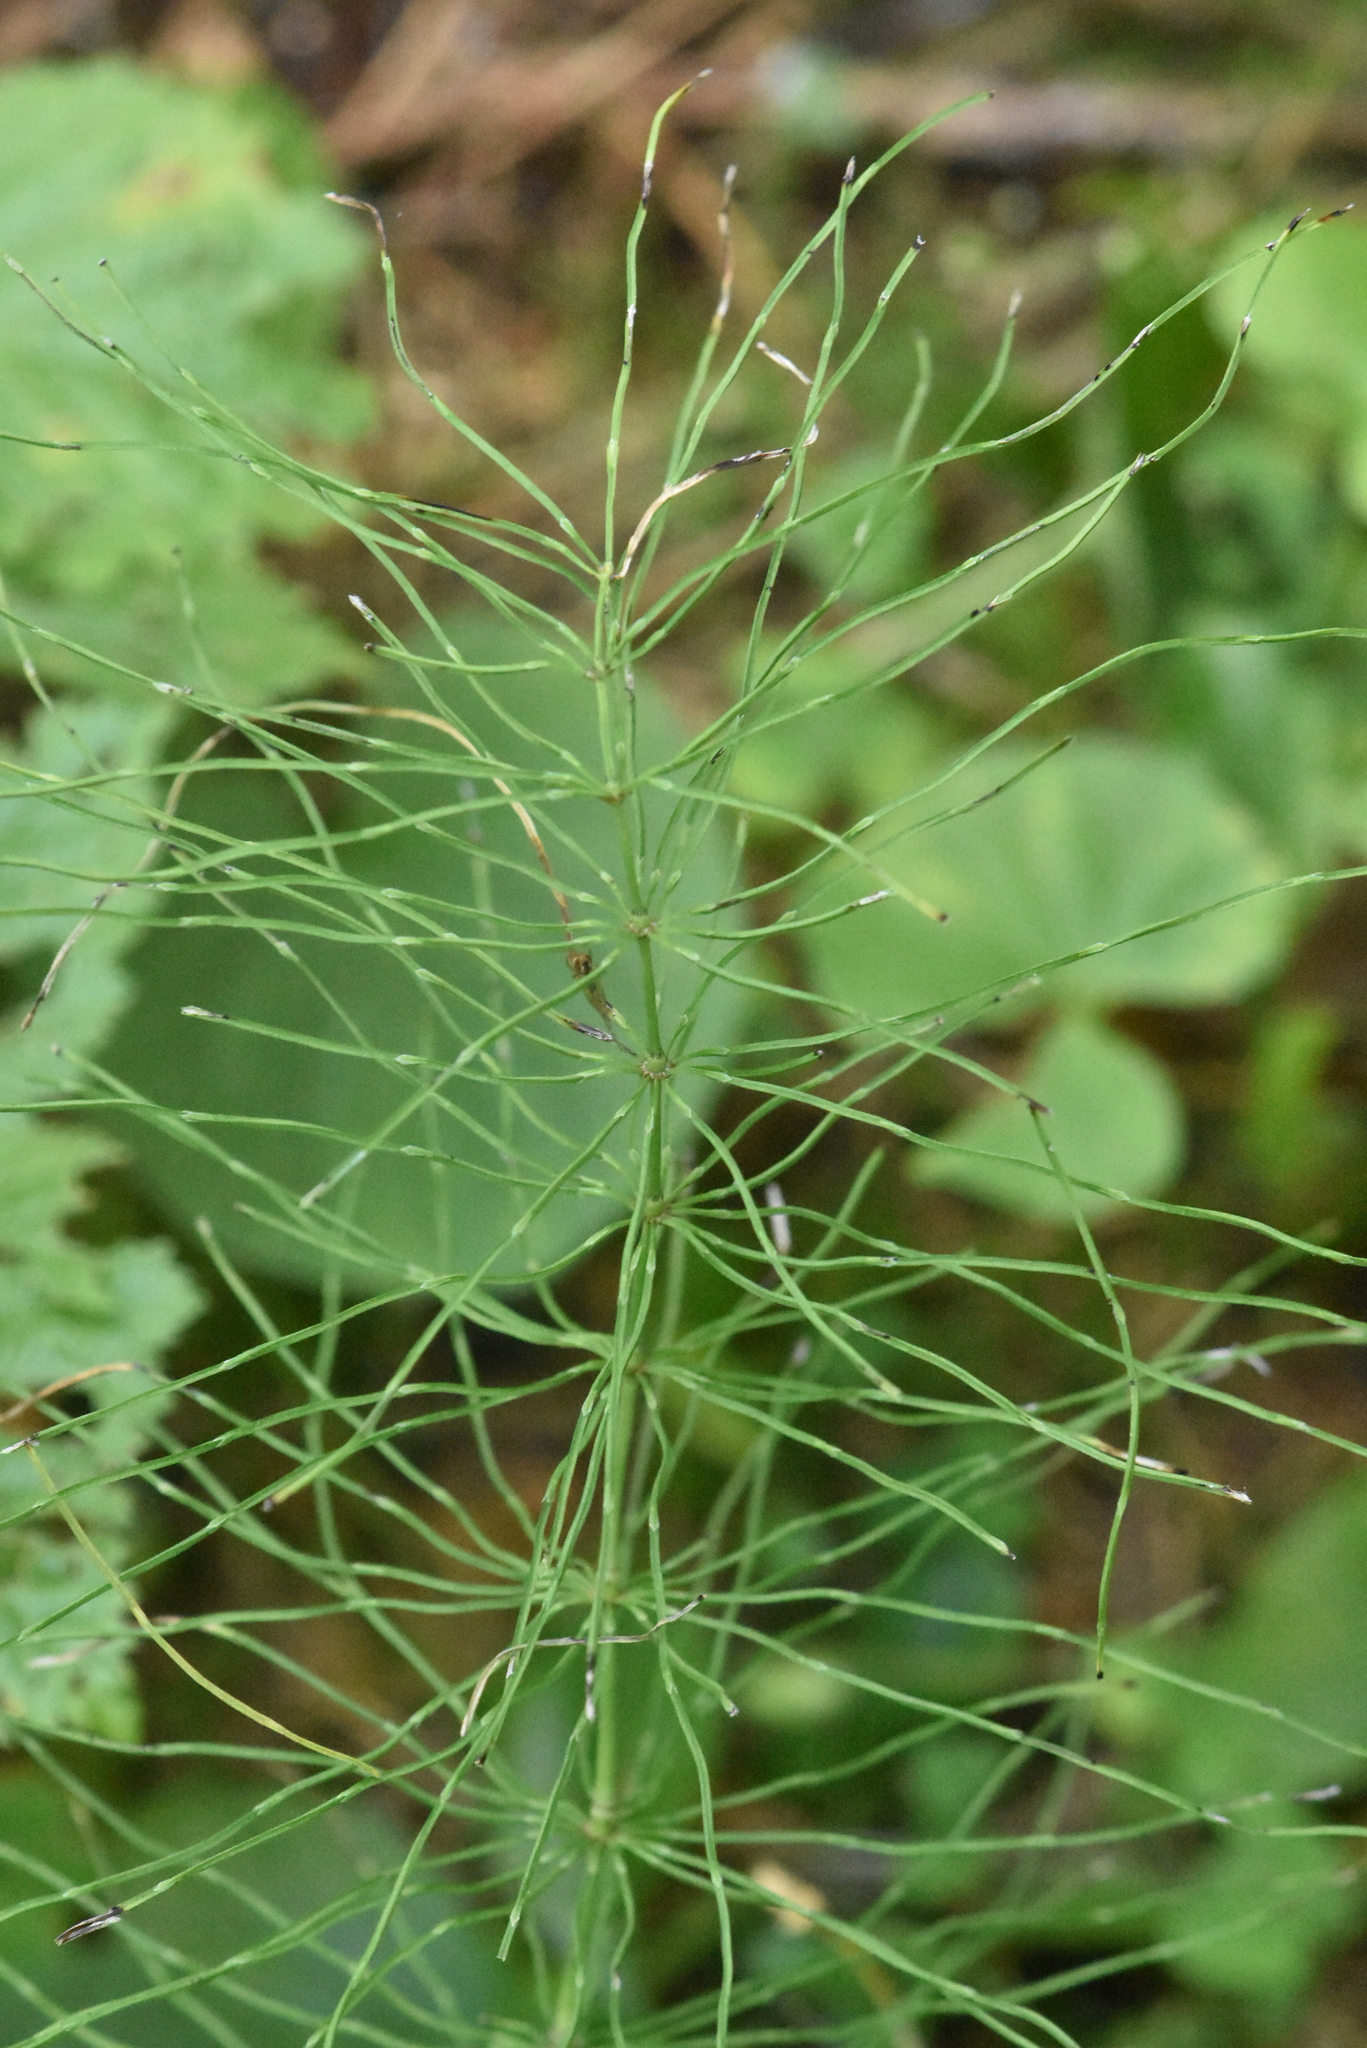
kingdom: Plantae
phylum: Tracheophyta
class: Polypodiopsida
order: Equisetales
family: Equisetaceae
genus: Equisetum
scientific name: Equisetum pratense
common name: Meadow horsetail
